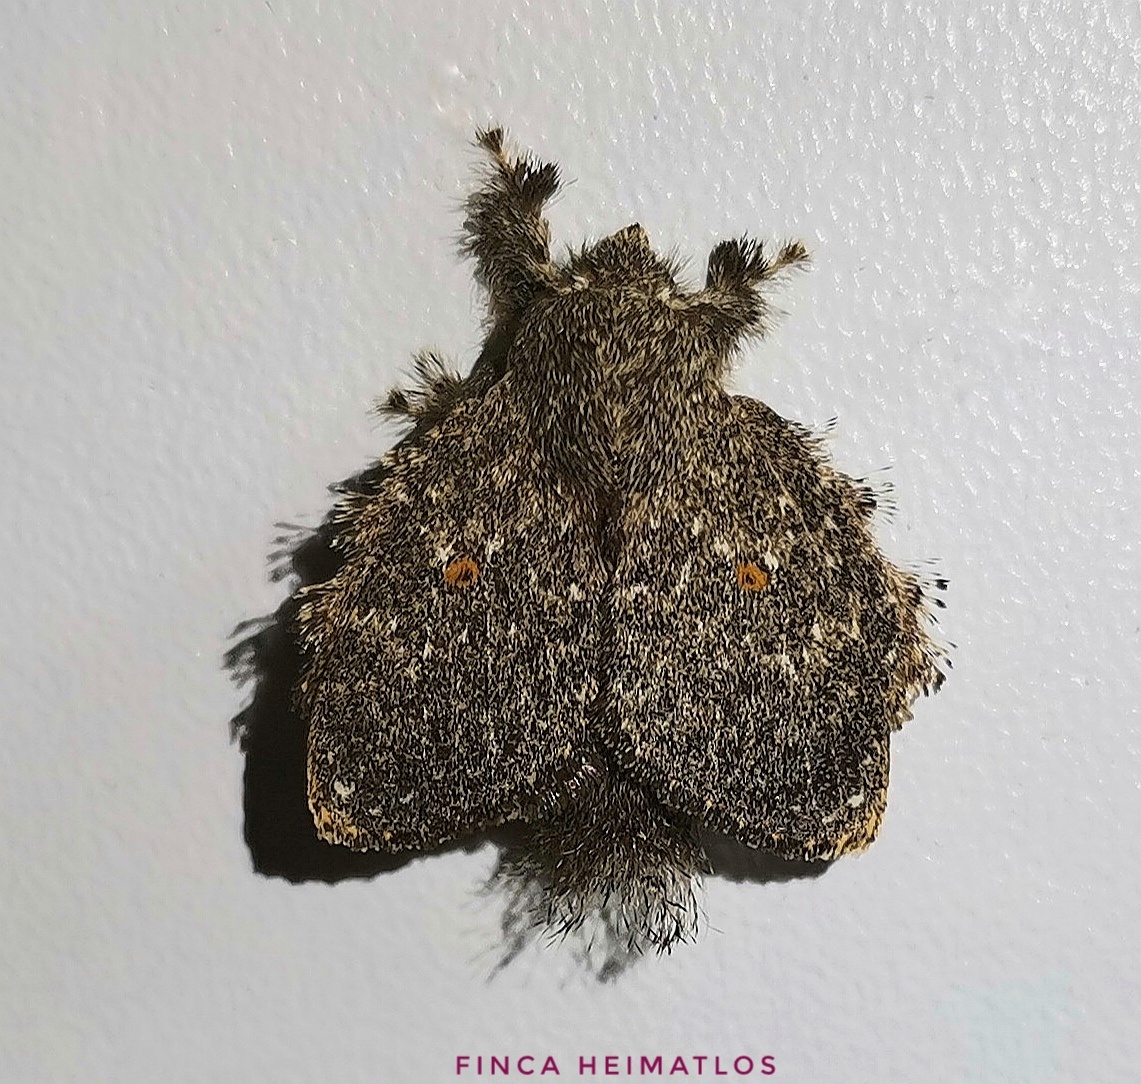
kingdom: Animalia
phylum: Arthropoda
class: Insecta
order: Lepidoptera
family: Lasiocampidae
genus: Euglyphis
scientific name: Euglyphis pastica
